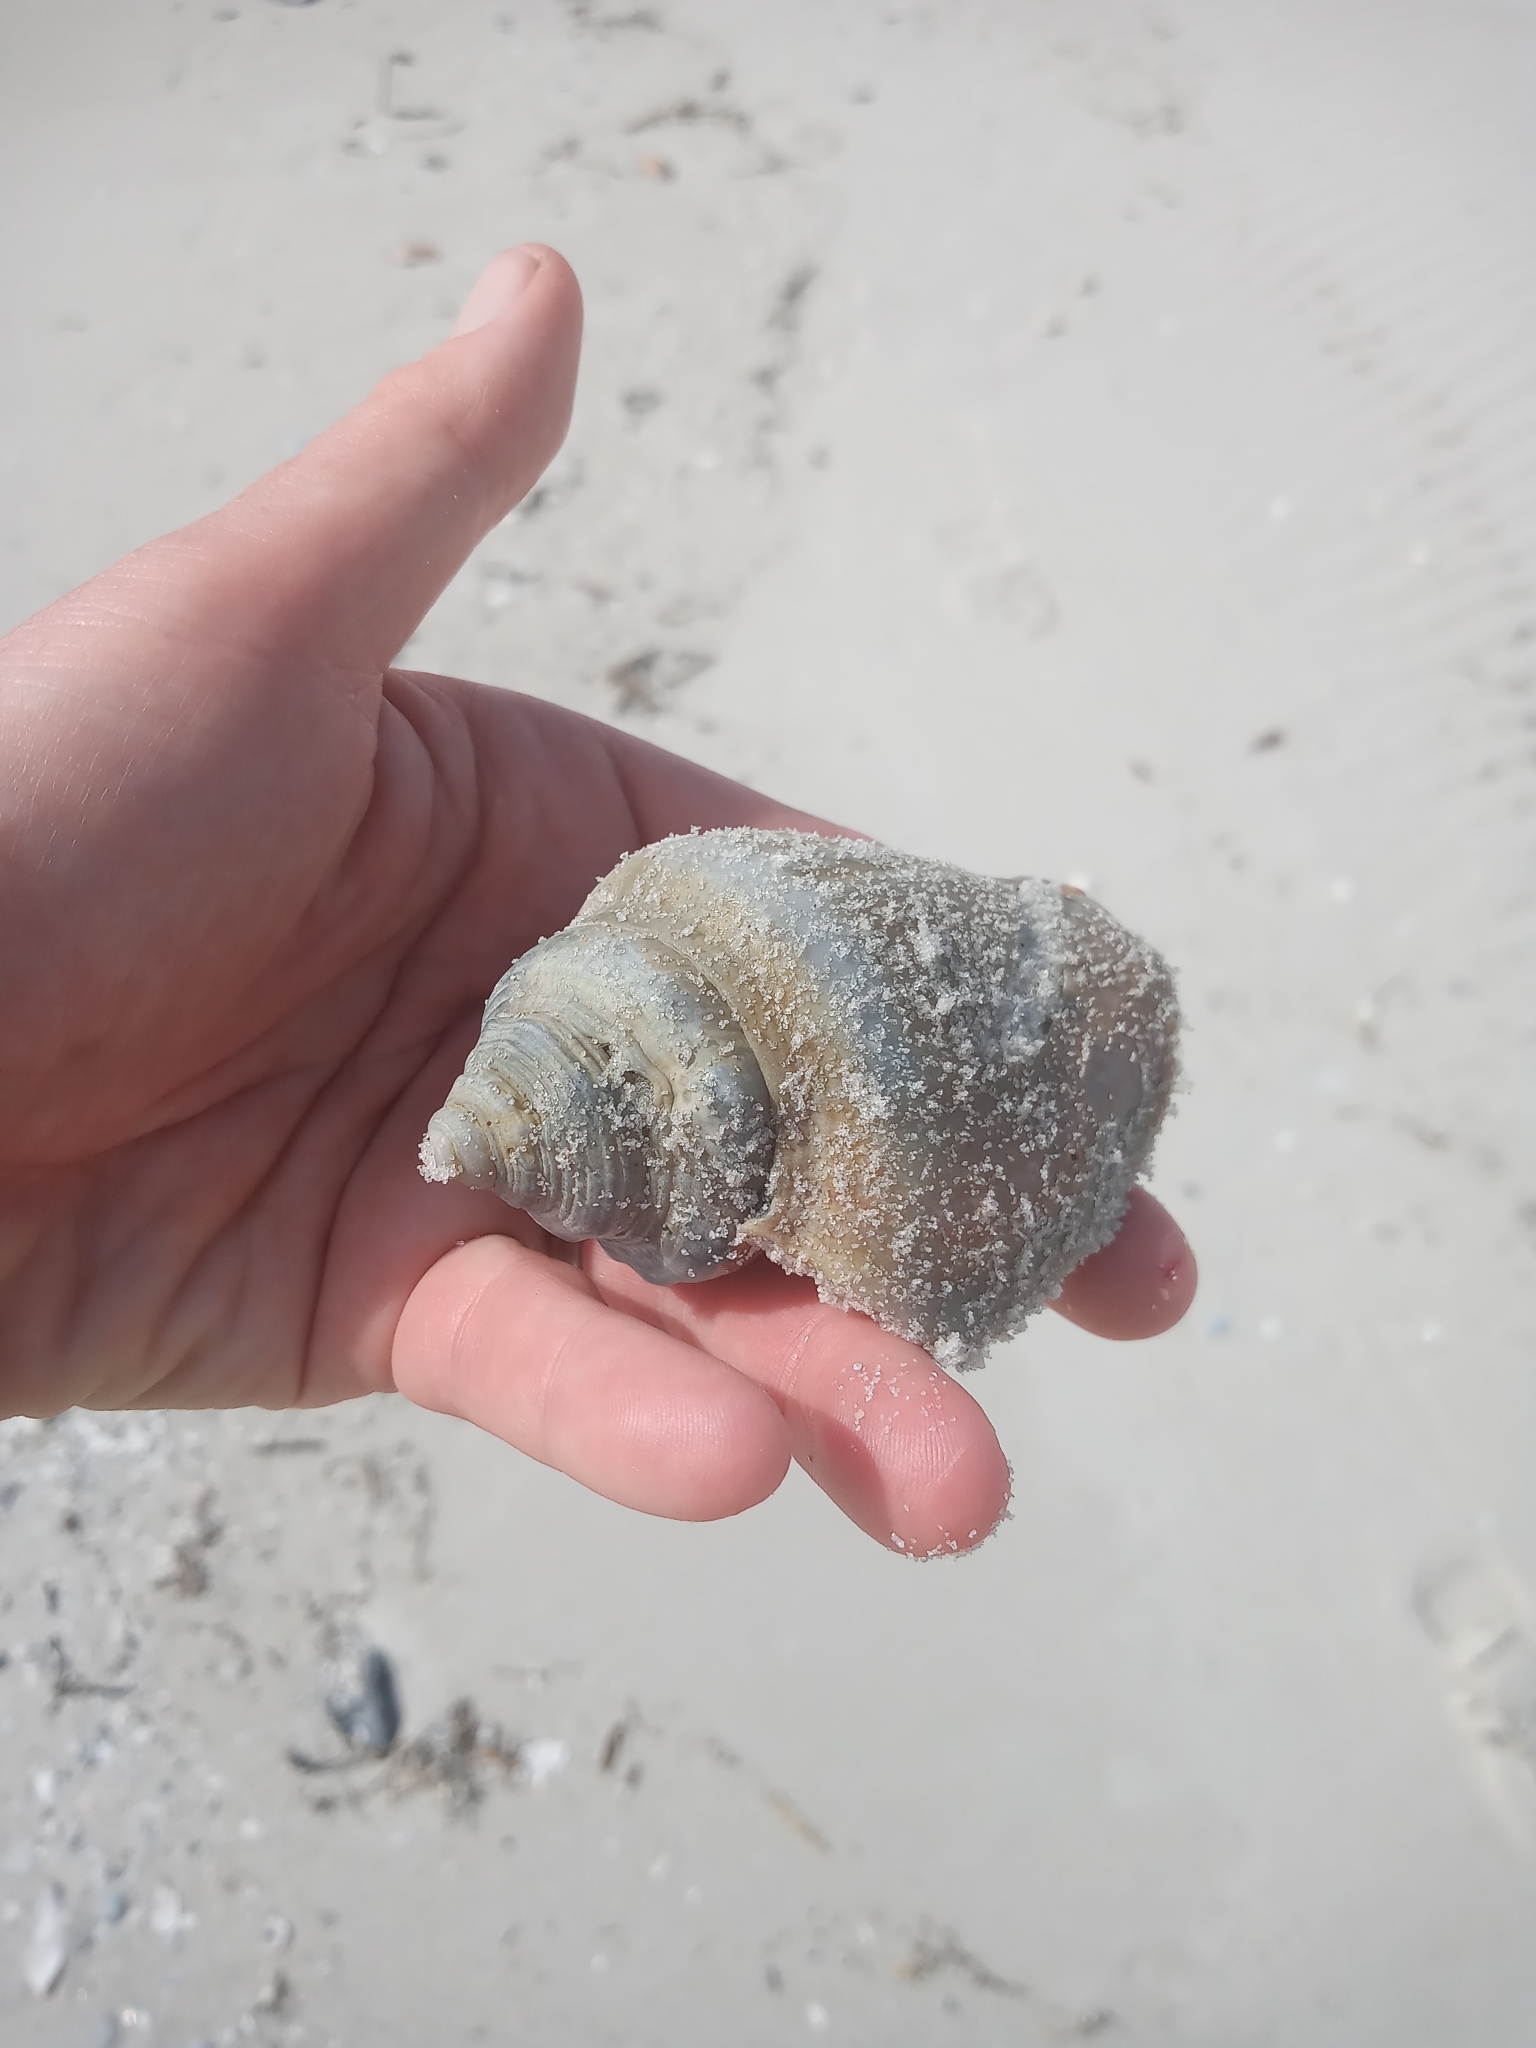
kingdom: Animalia
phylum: Mollusca
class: Gastropoda
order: Littorinimorpha
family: Strombidae
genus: Strombus
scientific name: Strombus alatus
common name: Florida fighting conch
